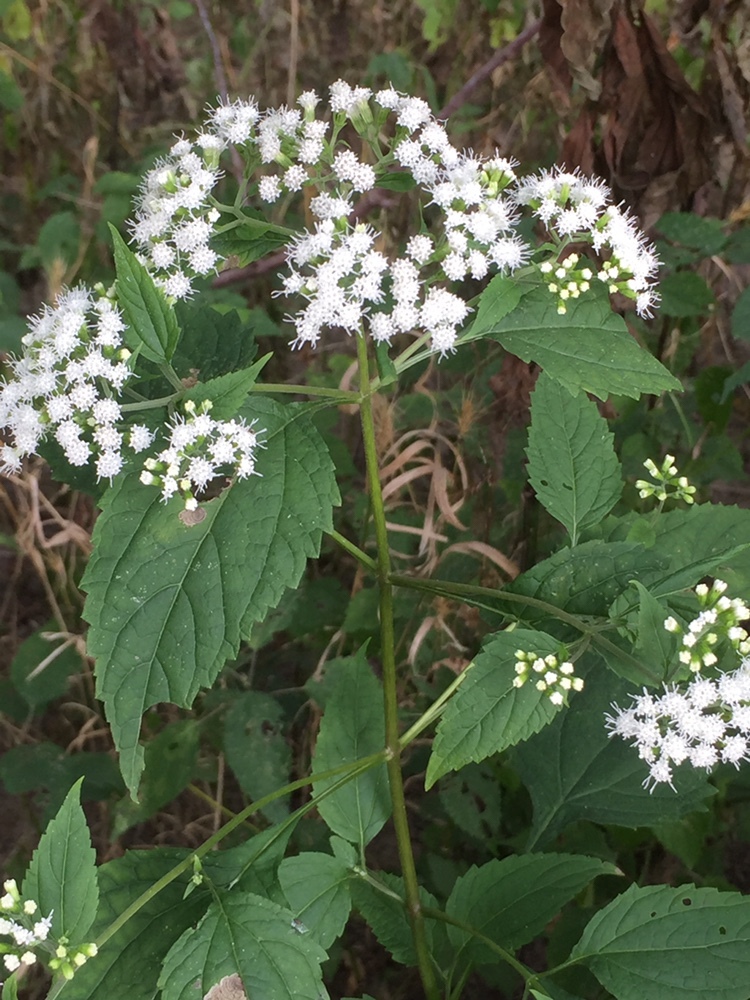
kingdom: Plantae
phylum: Tracheophyta
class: Magnoliopsida
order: Asterales
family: Asteraceae
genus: Ageratina
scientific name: Ageratina altissima
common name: White snakeroot
